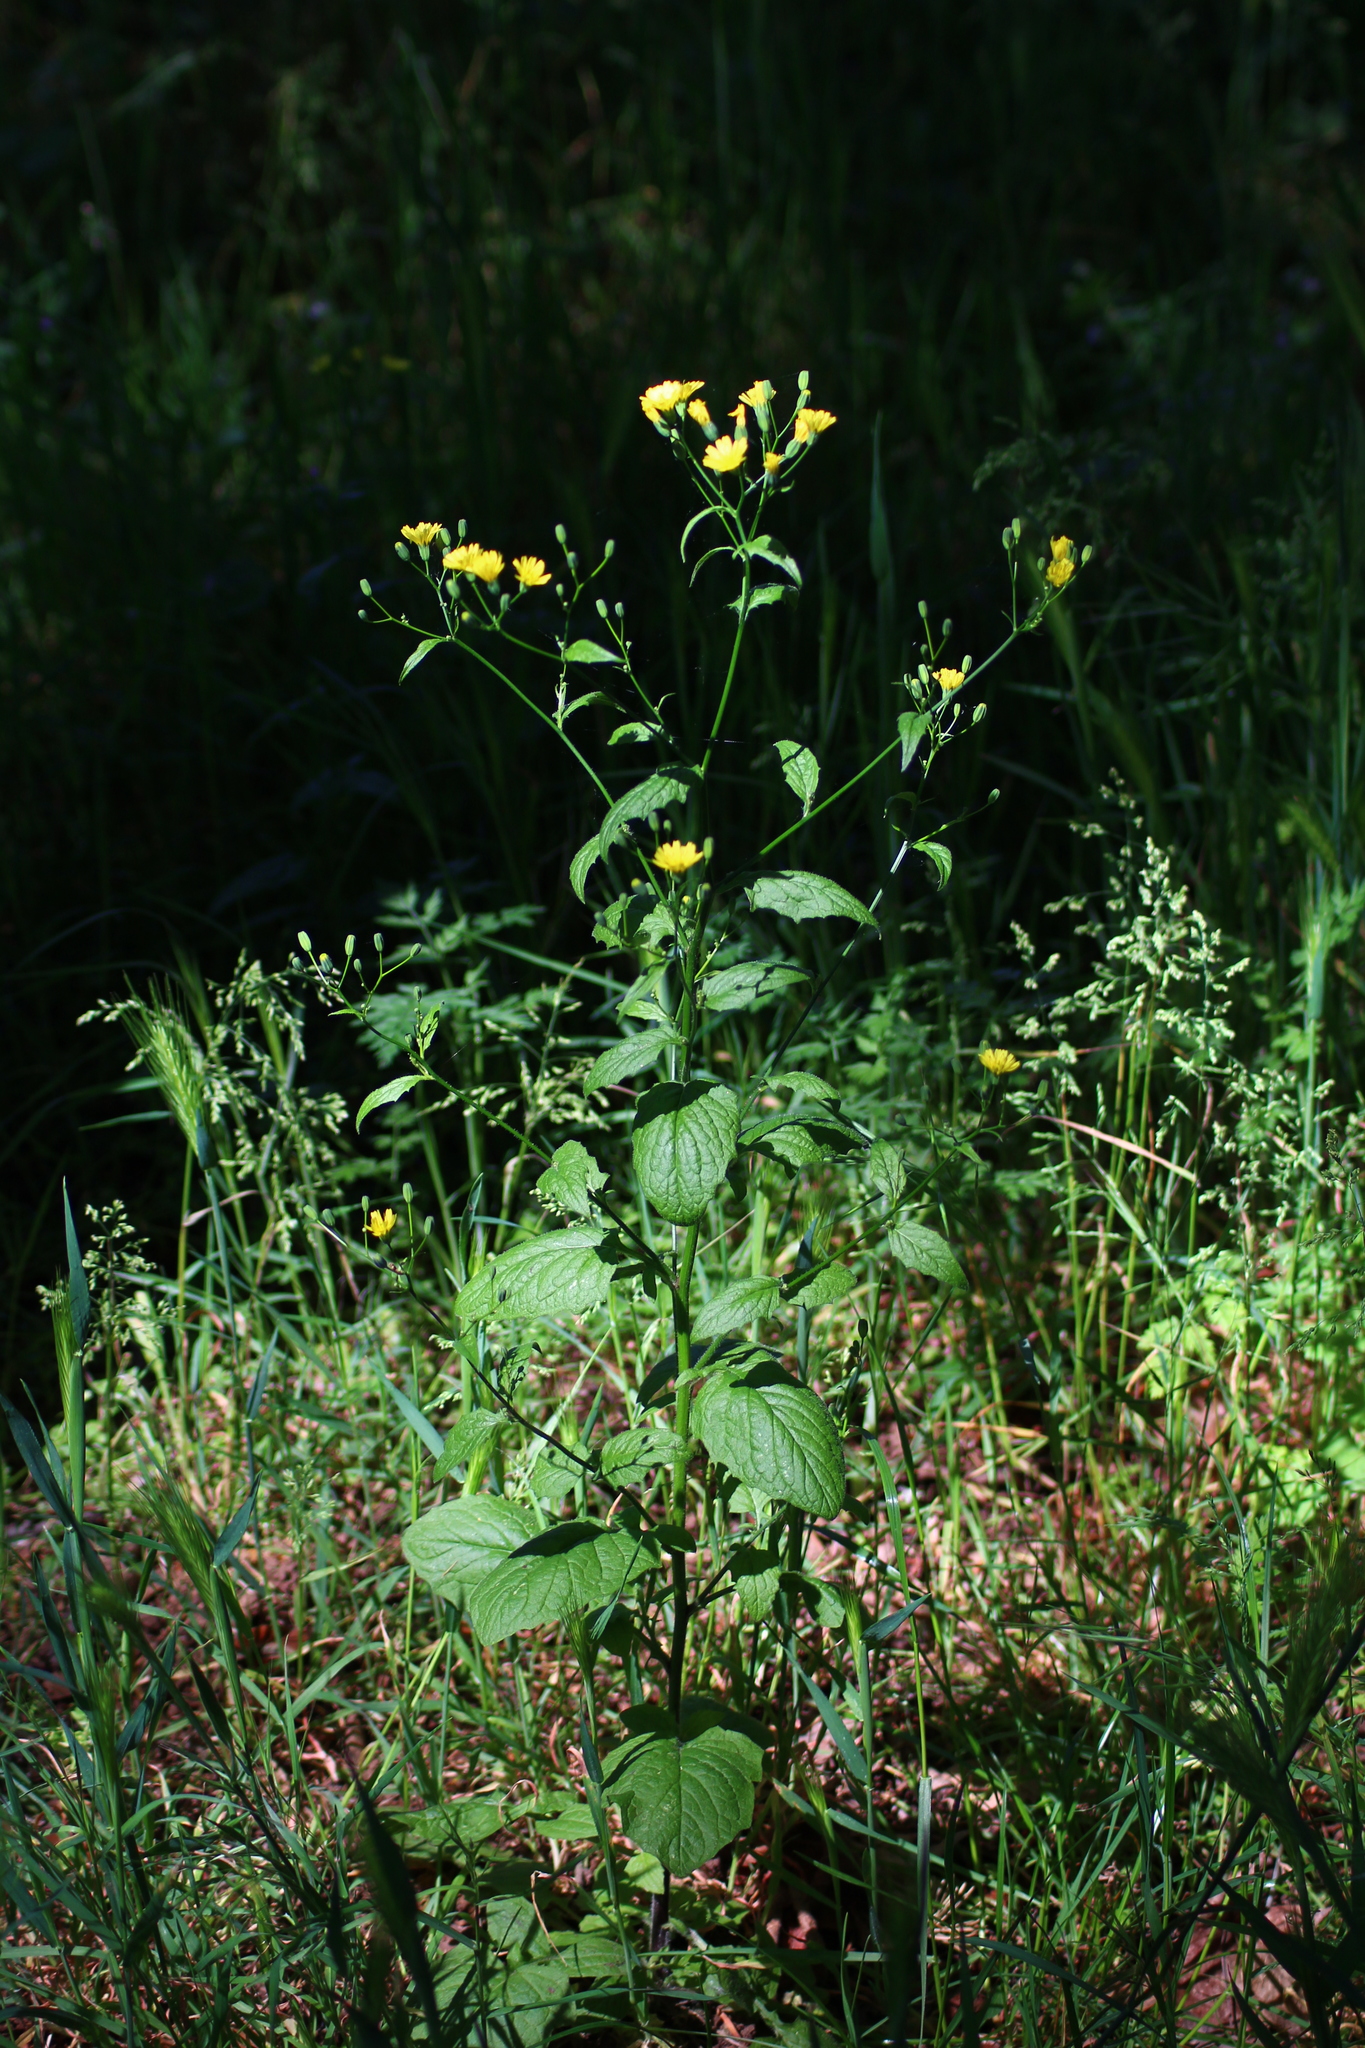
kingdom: Plantae
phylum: Tracheophyta
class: Magnoliopsida
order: Asterales
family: Asteraceae
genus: Lapsana
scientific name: Lapsana communis
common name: Nipplewort
